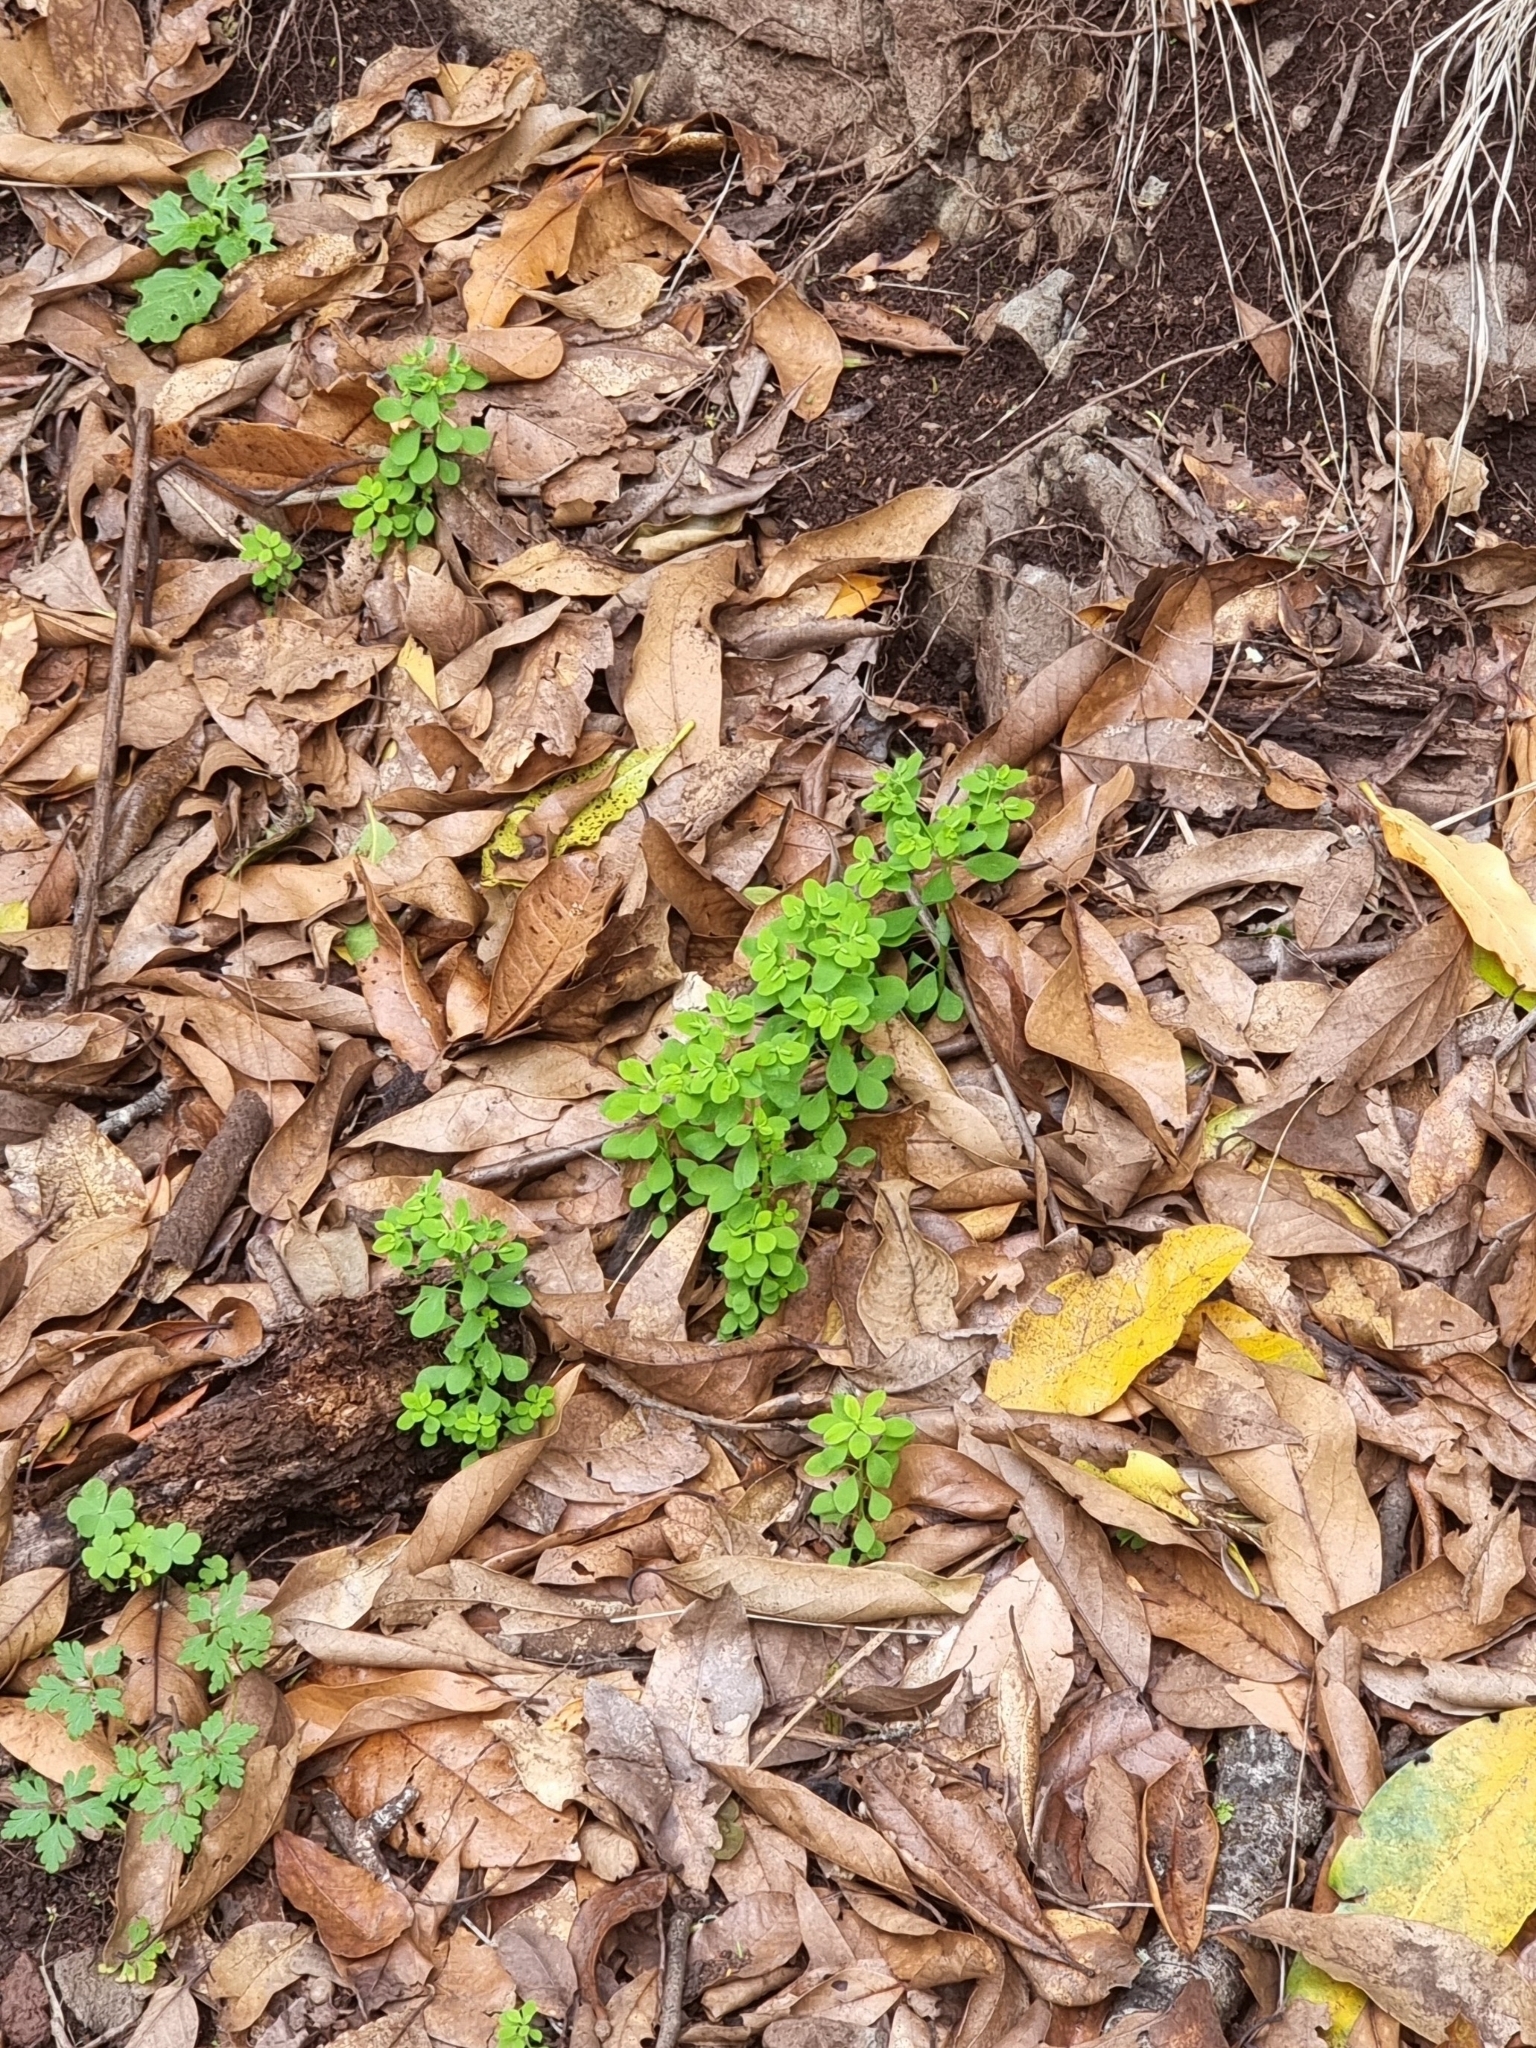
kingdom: Plantae
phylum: Tracheophyta
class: Magnoliopsida
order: Malpighiales
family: Euphorbiaceae
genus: Euphorbia
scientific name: Euphorbia peplus
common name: Petty spurge
